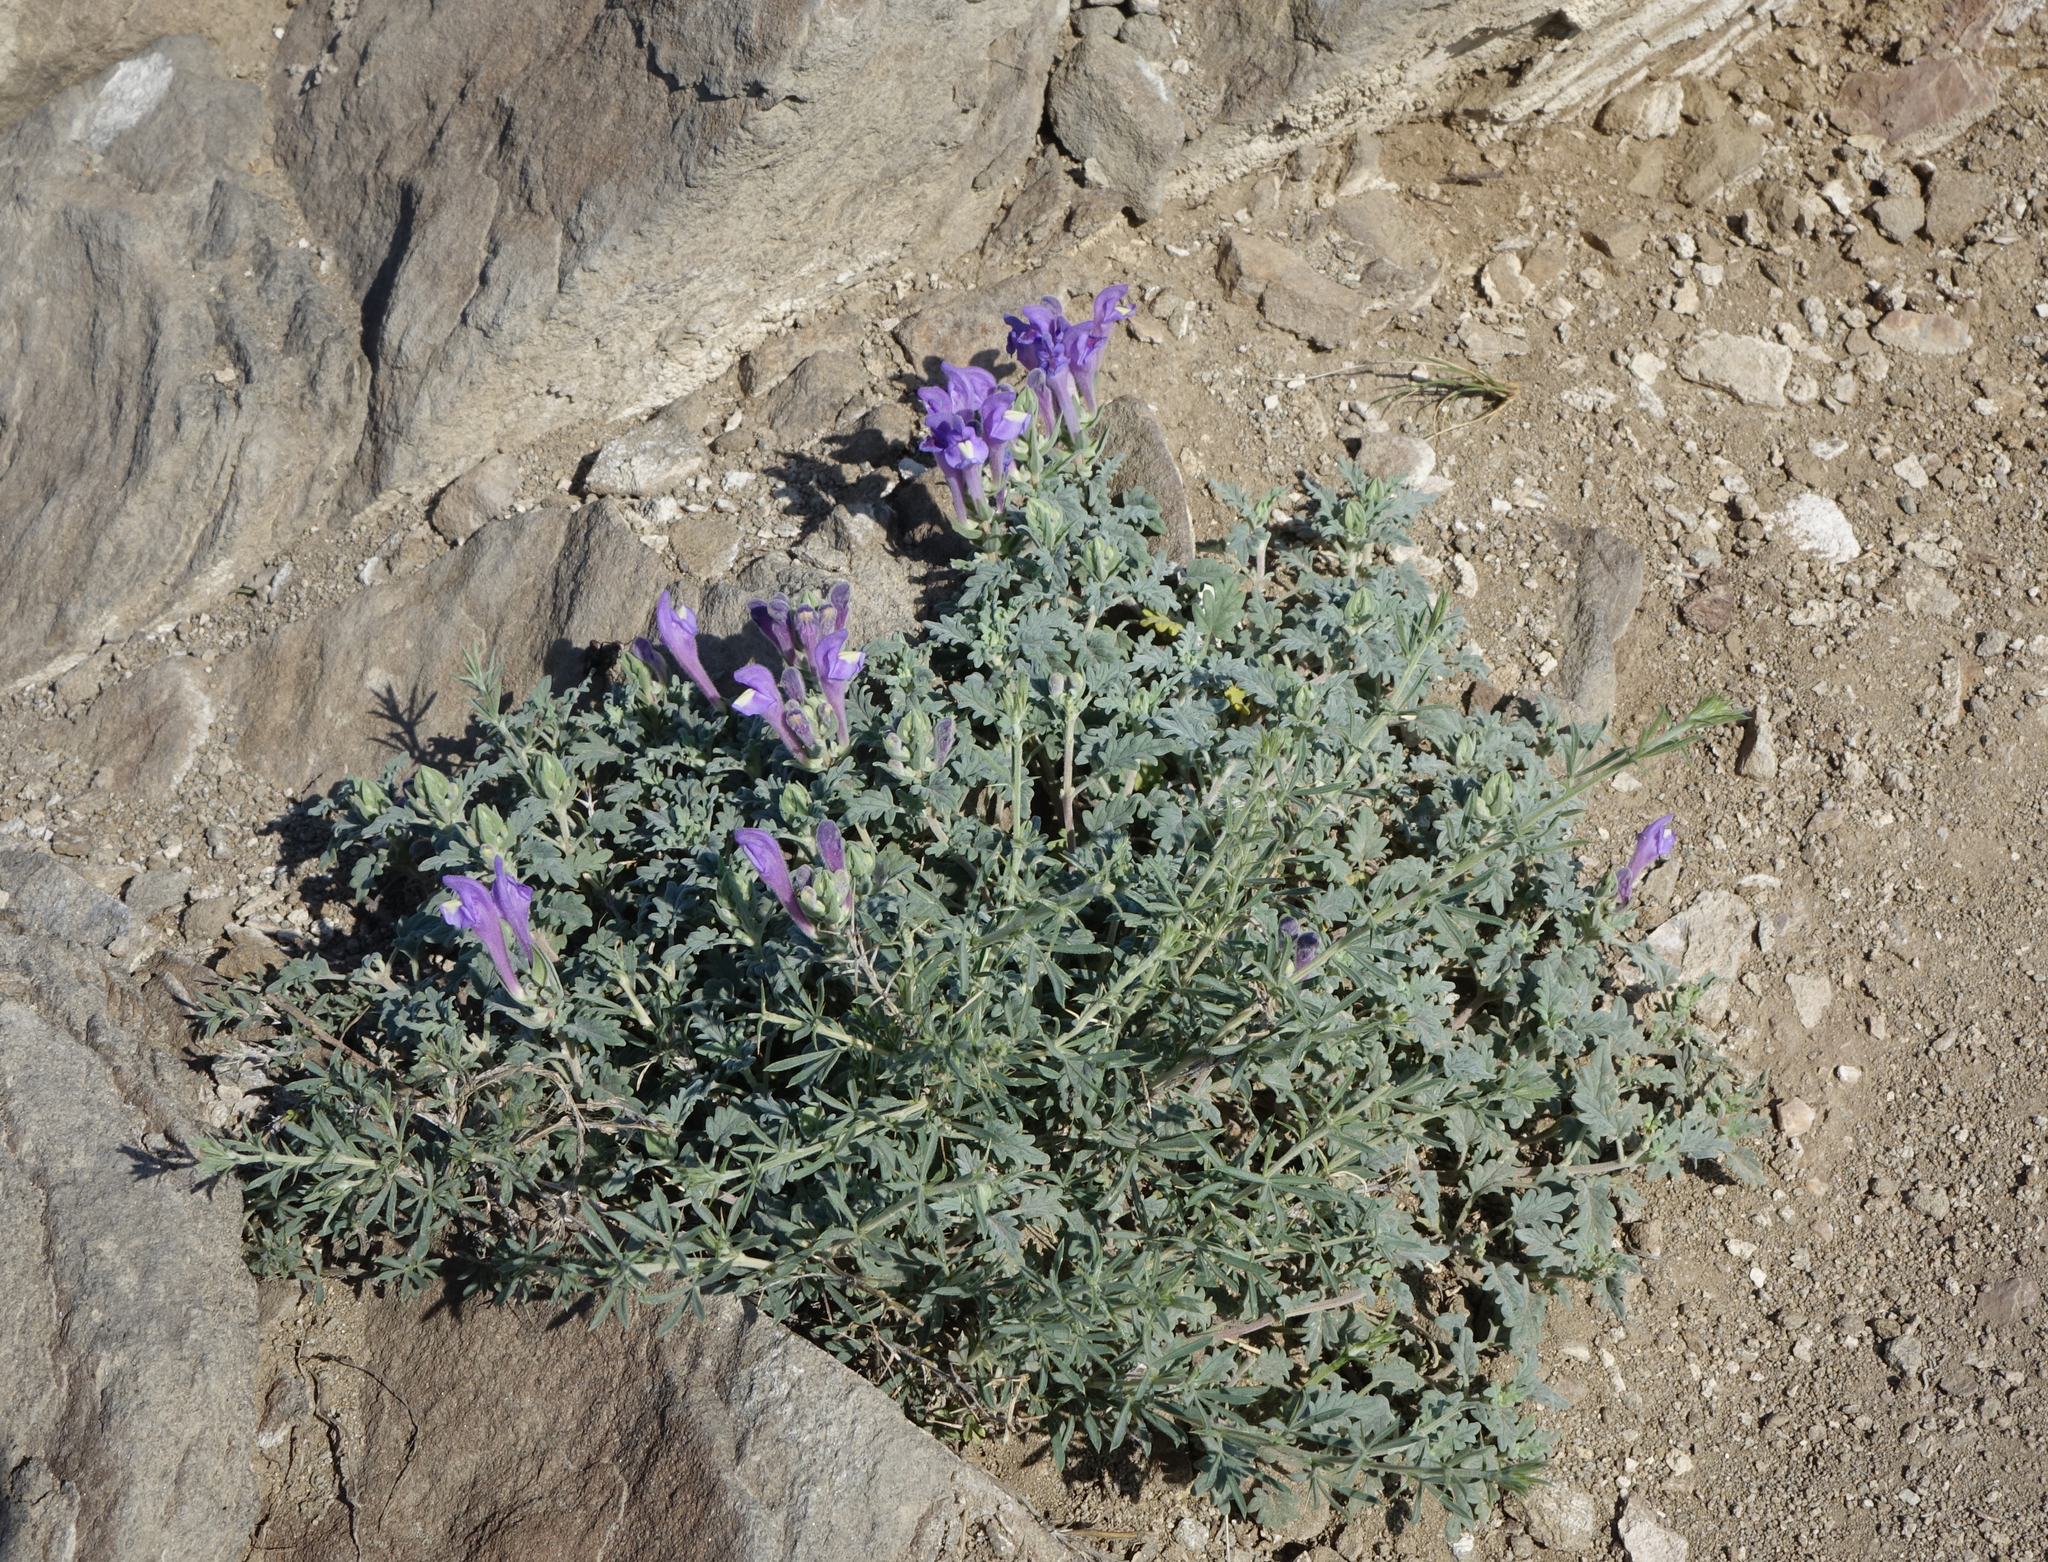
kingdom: Plantae
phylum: Tracheophyta
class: Magnoliopsida
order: Lamiales
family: Lamiaceae
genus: Scutellaria
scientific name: Scutellaria tuvensis
